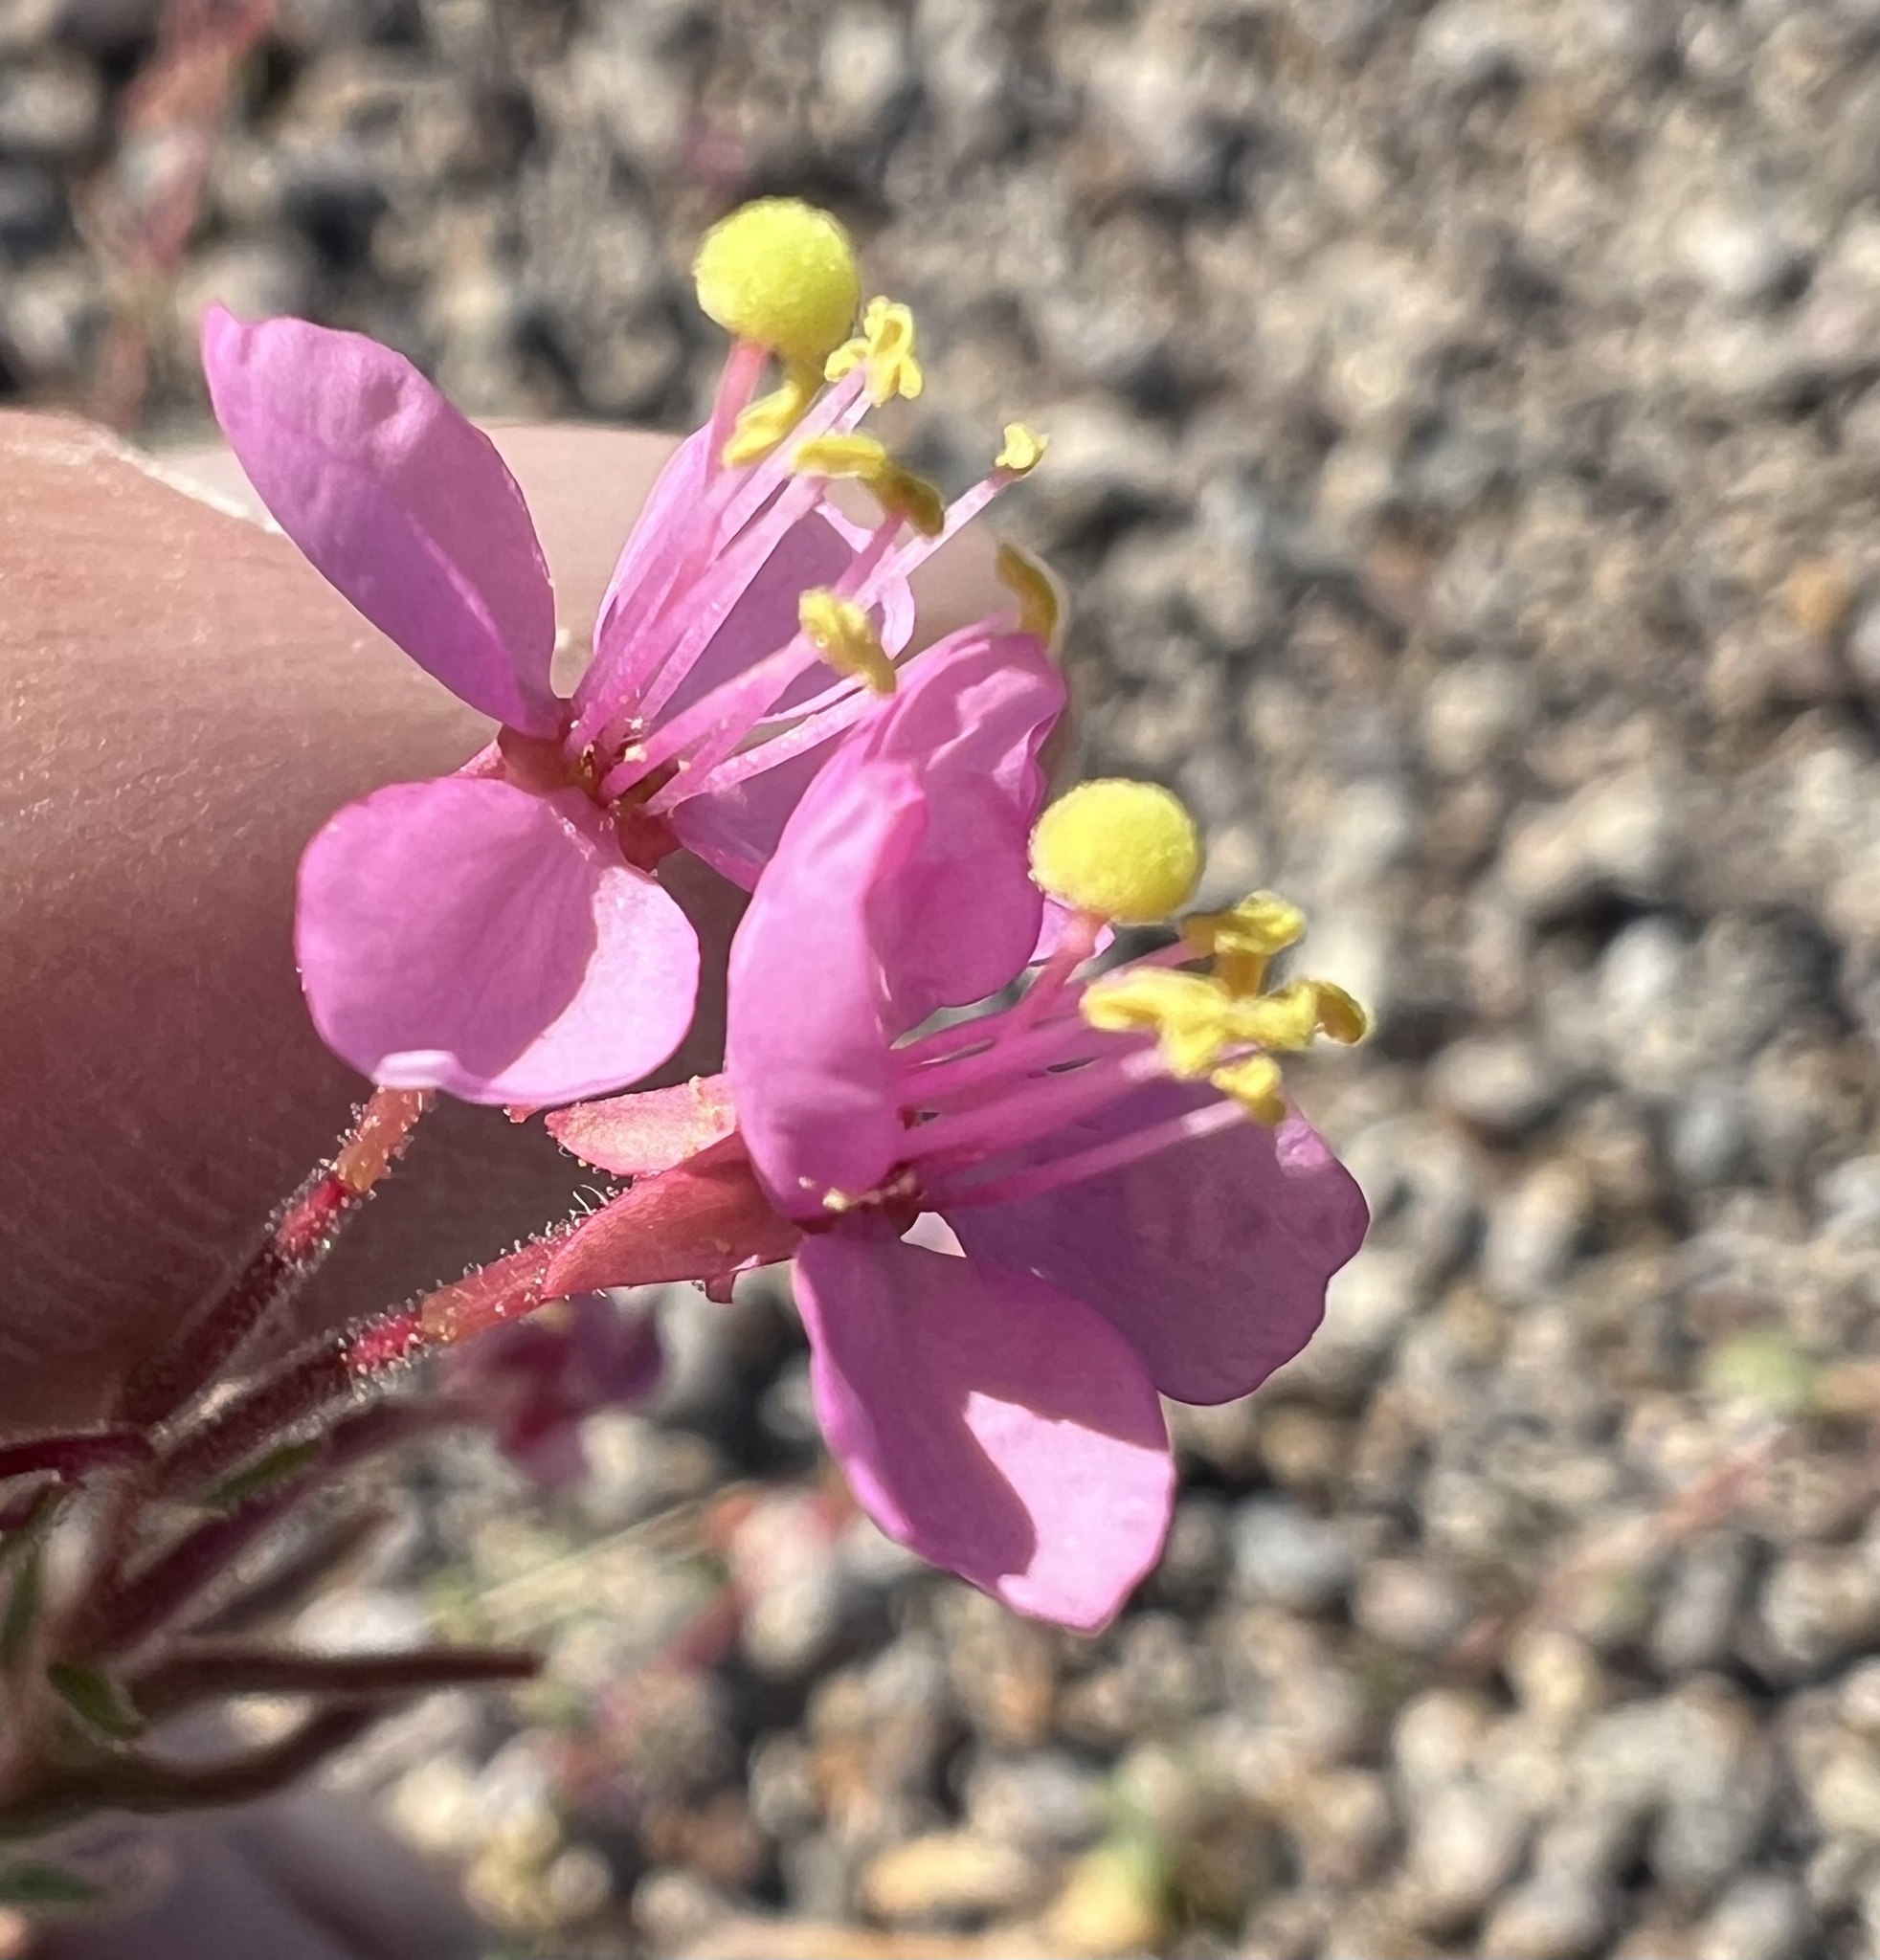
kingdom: Plantae
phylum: Tracheophyta
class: Magnoliopsida
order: Myrtales
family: Onagraceae
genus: Eremothera
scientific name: Eremothera boothii
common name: Booth's evening primrose
